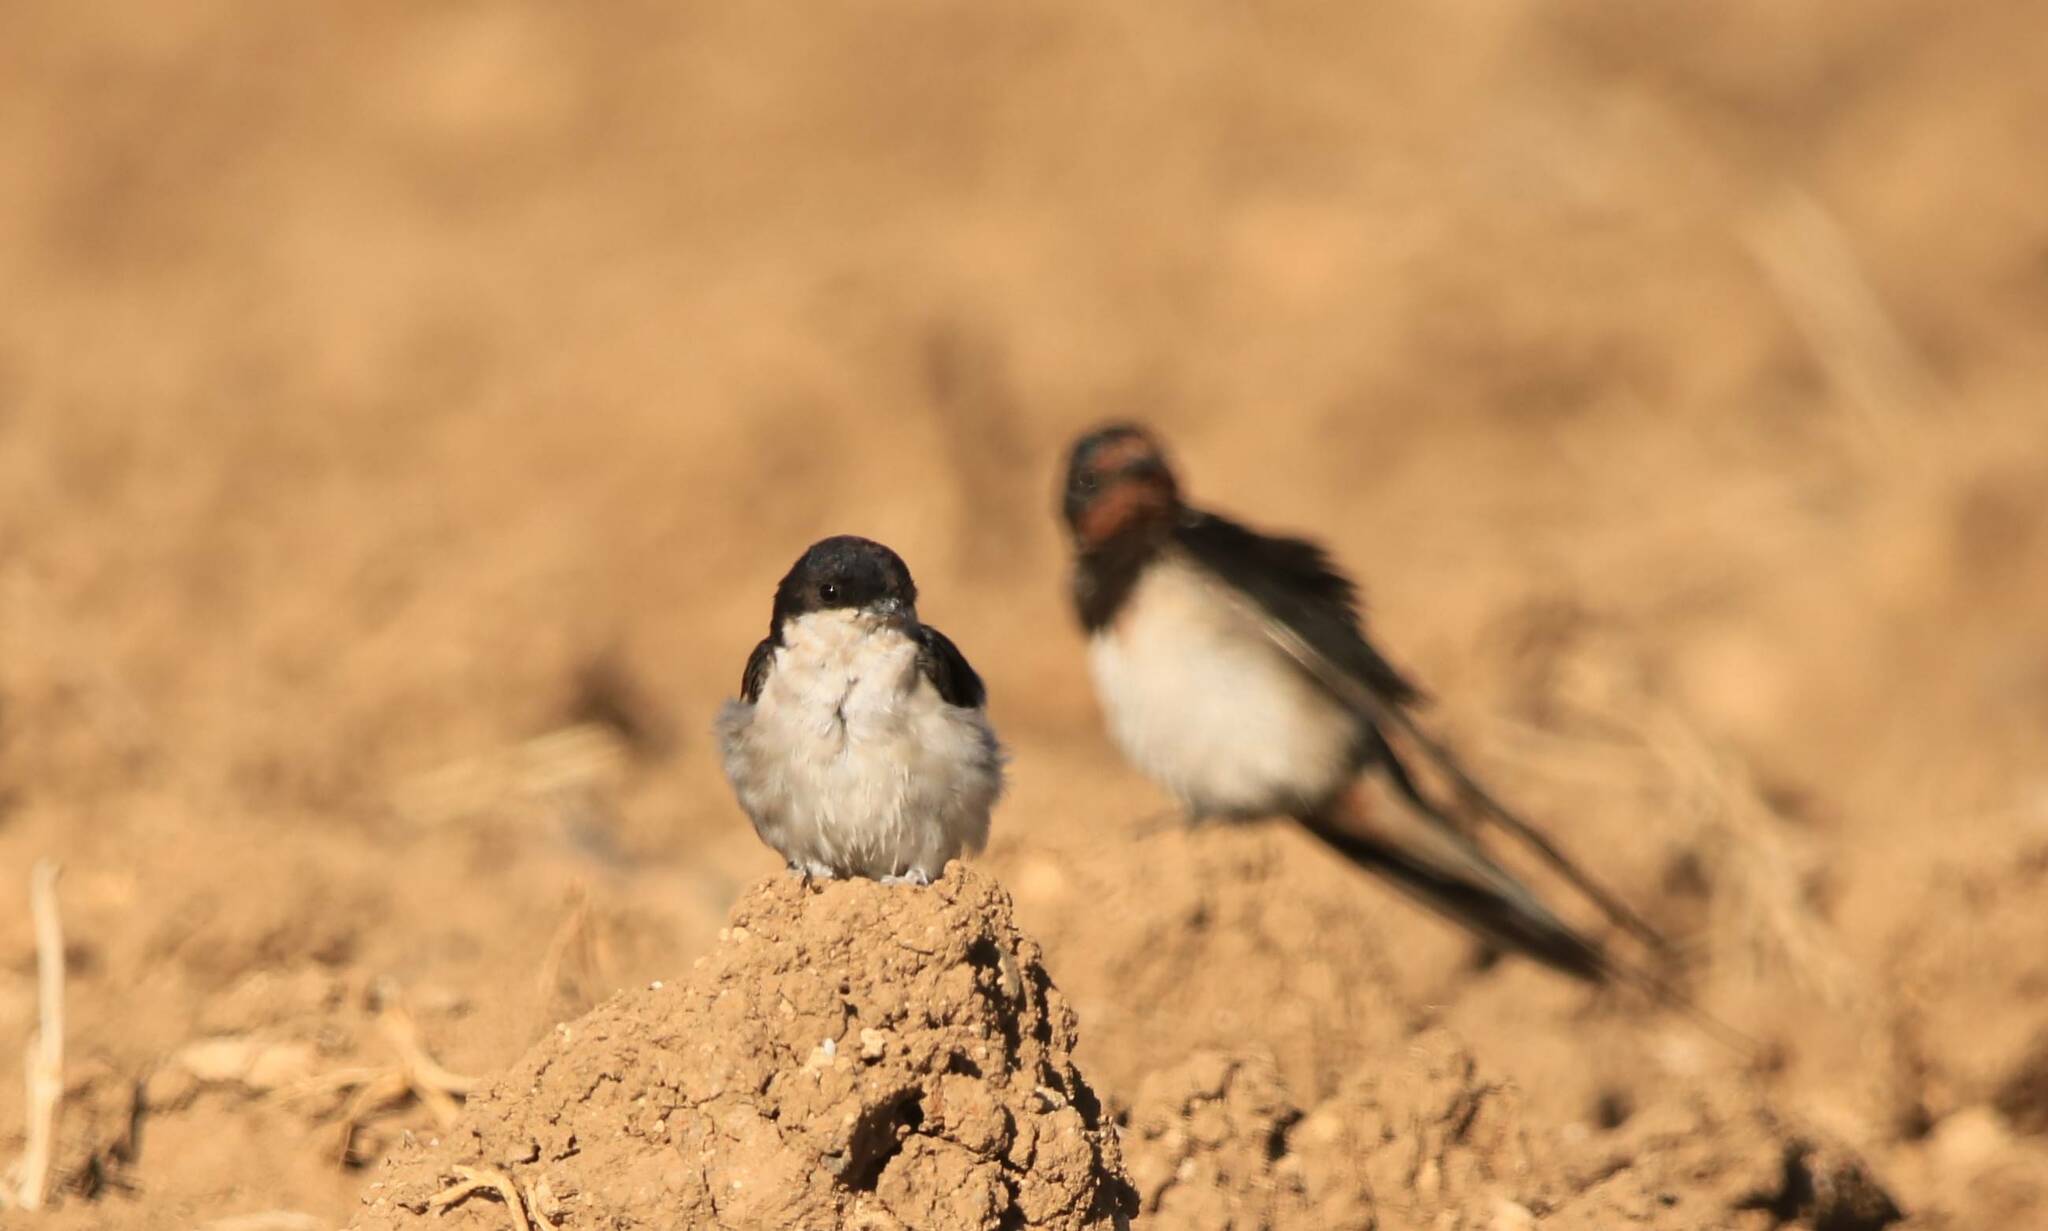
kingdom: Animalia
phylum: Chordata
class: Aves
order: Passeriformes
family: Hirundinidae
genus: Delichon
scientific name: Delichon urbicum
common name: Common house martin
